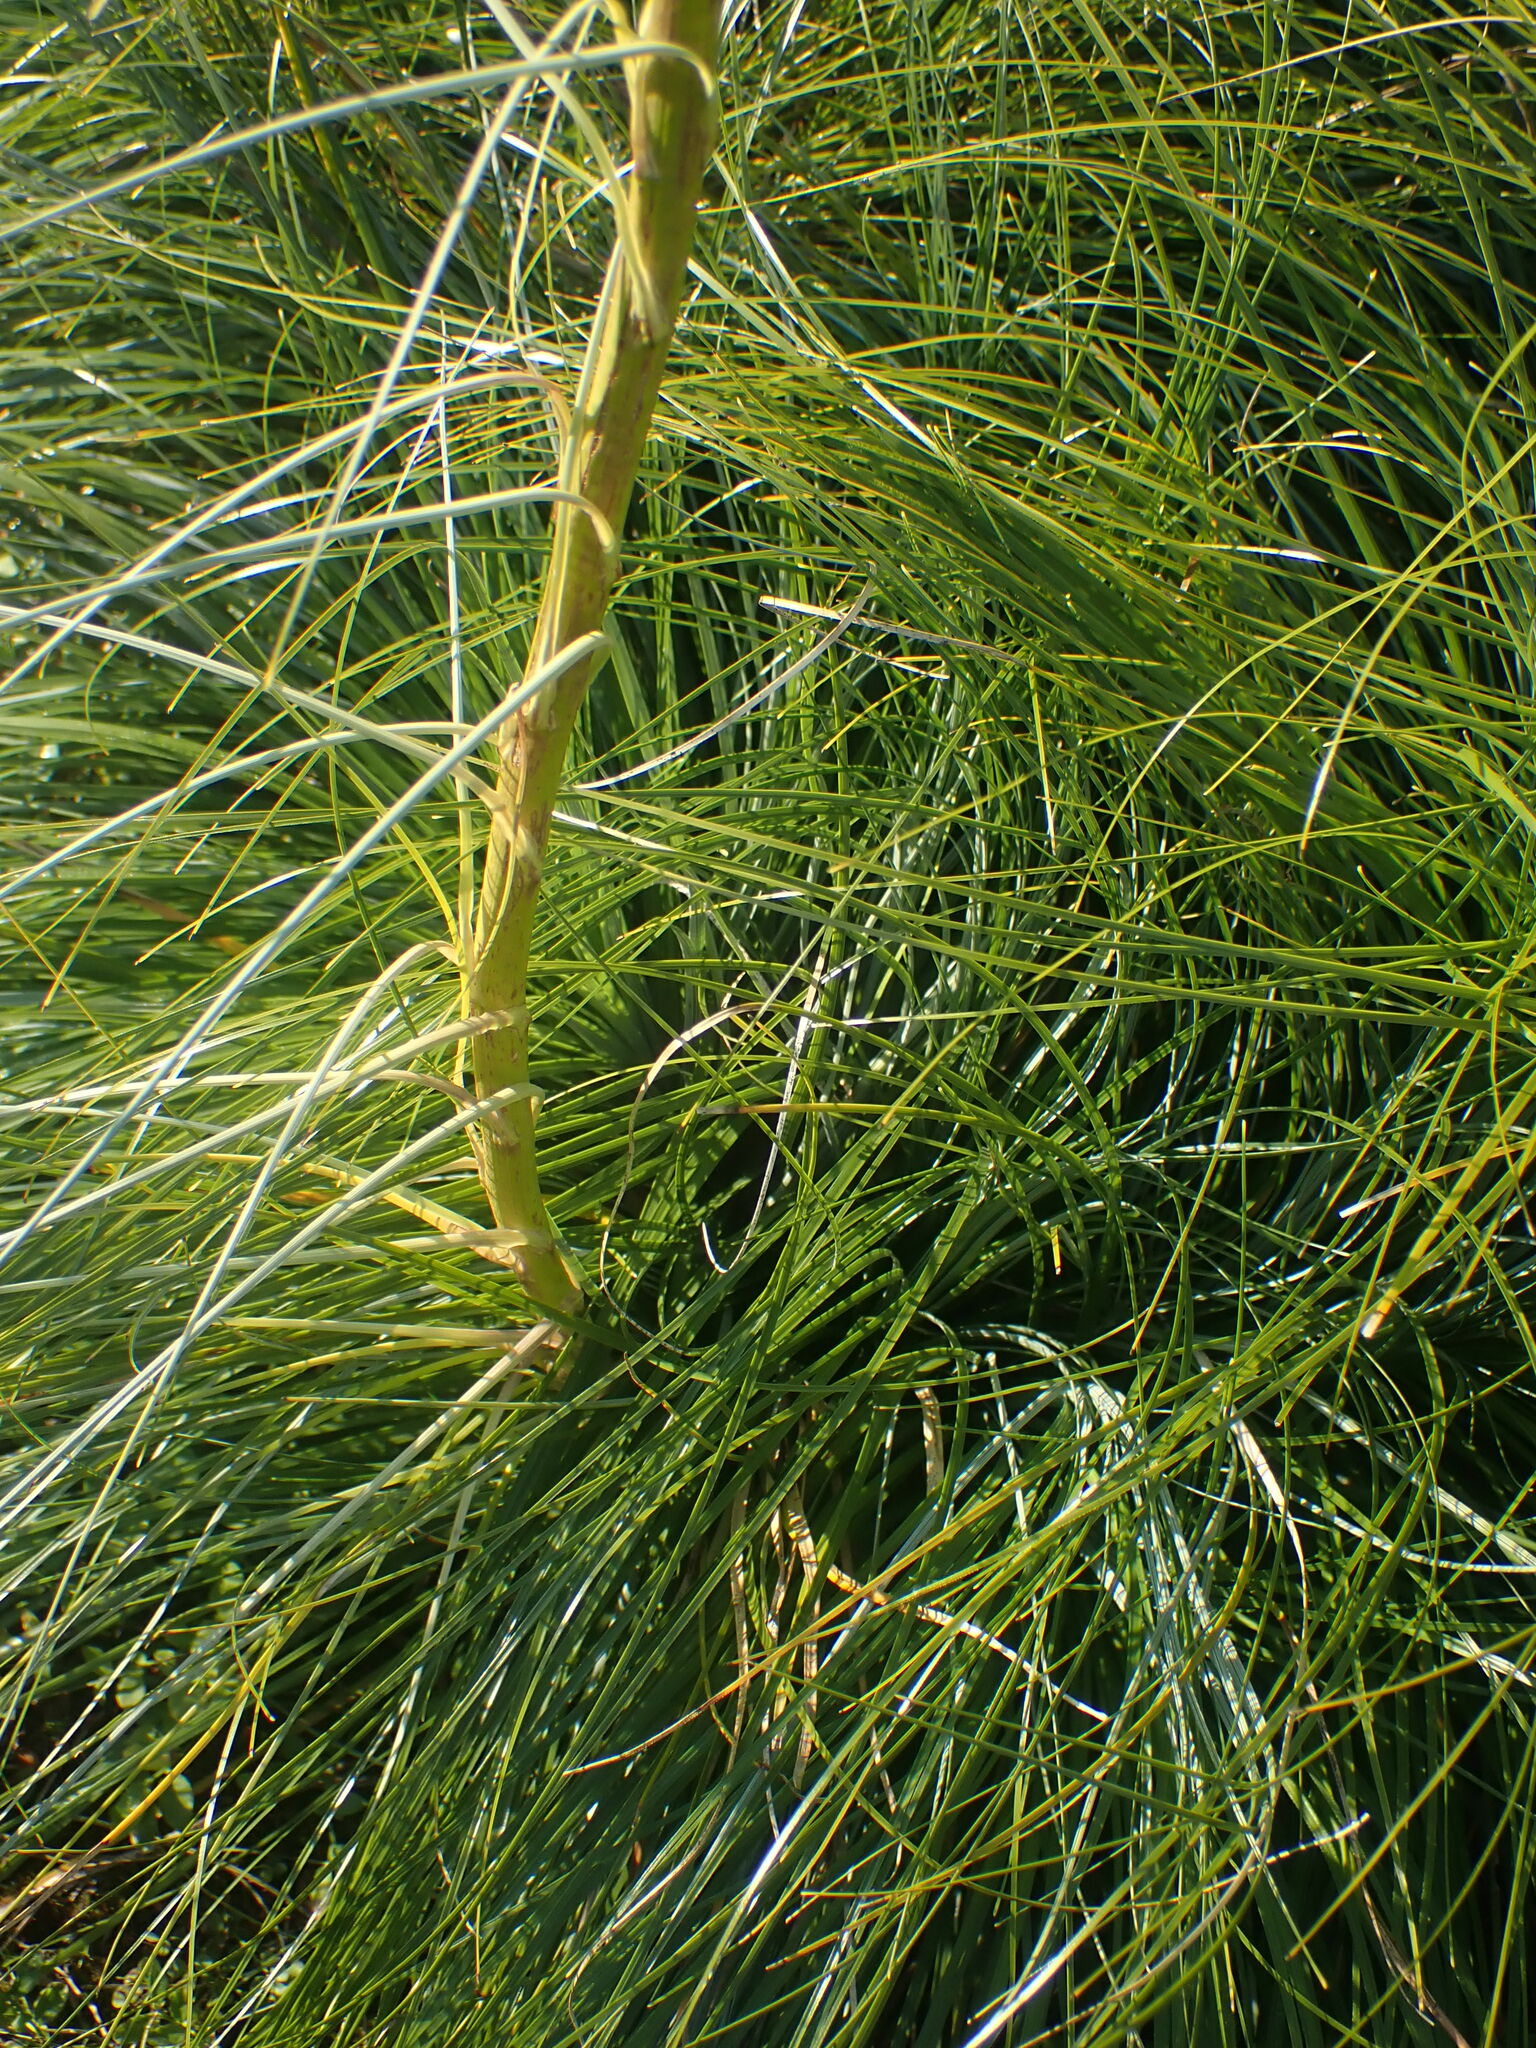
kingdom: Plantae
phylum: Tracheophyta
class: Liliopsida
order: Liliales
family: Melanthiaceae
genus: Xerophyllum
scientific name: Xerophyllum tenax
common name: Bear-grass
